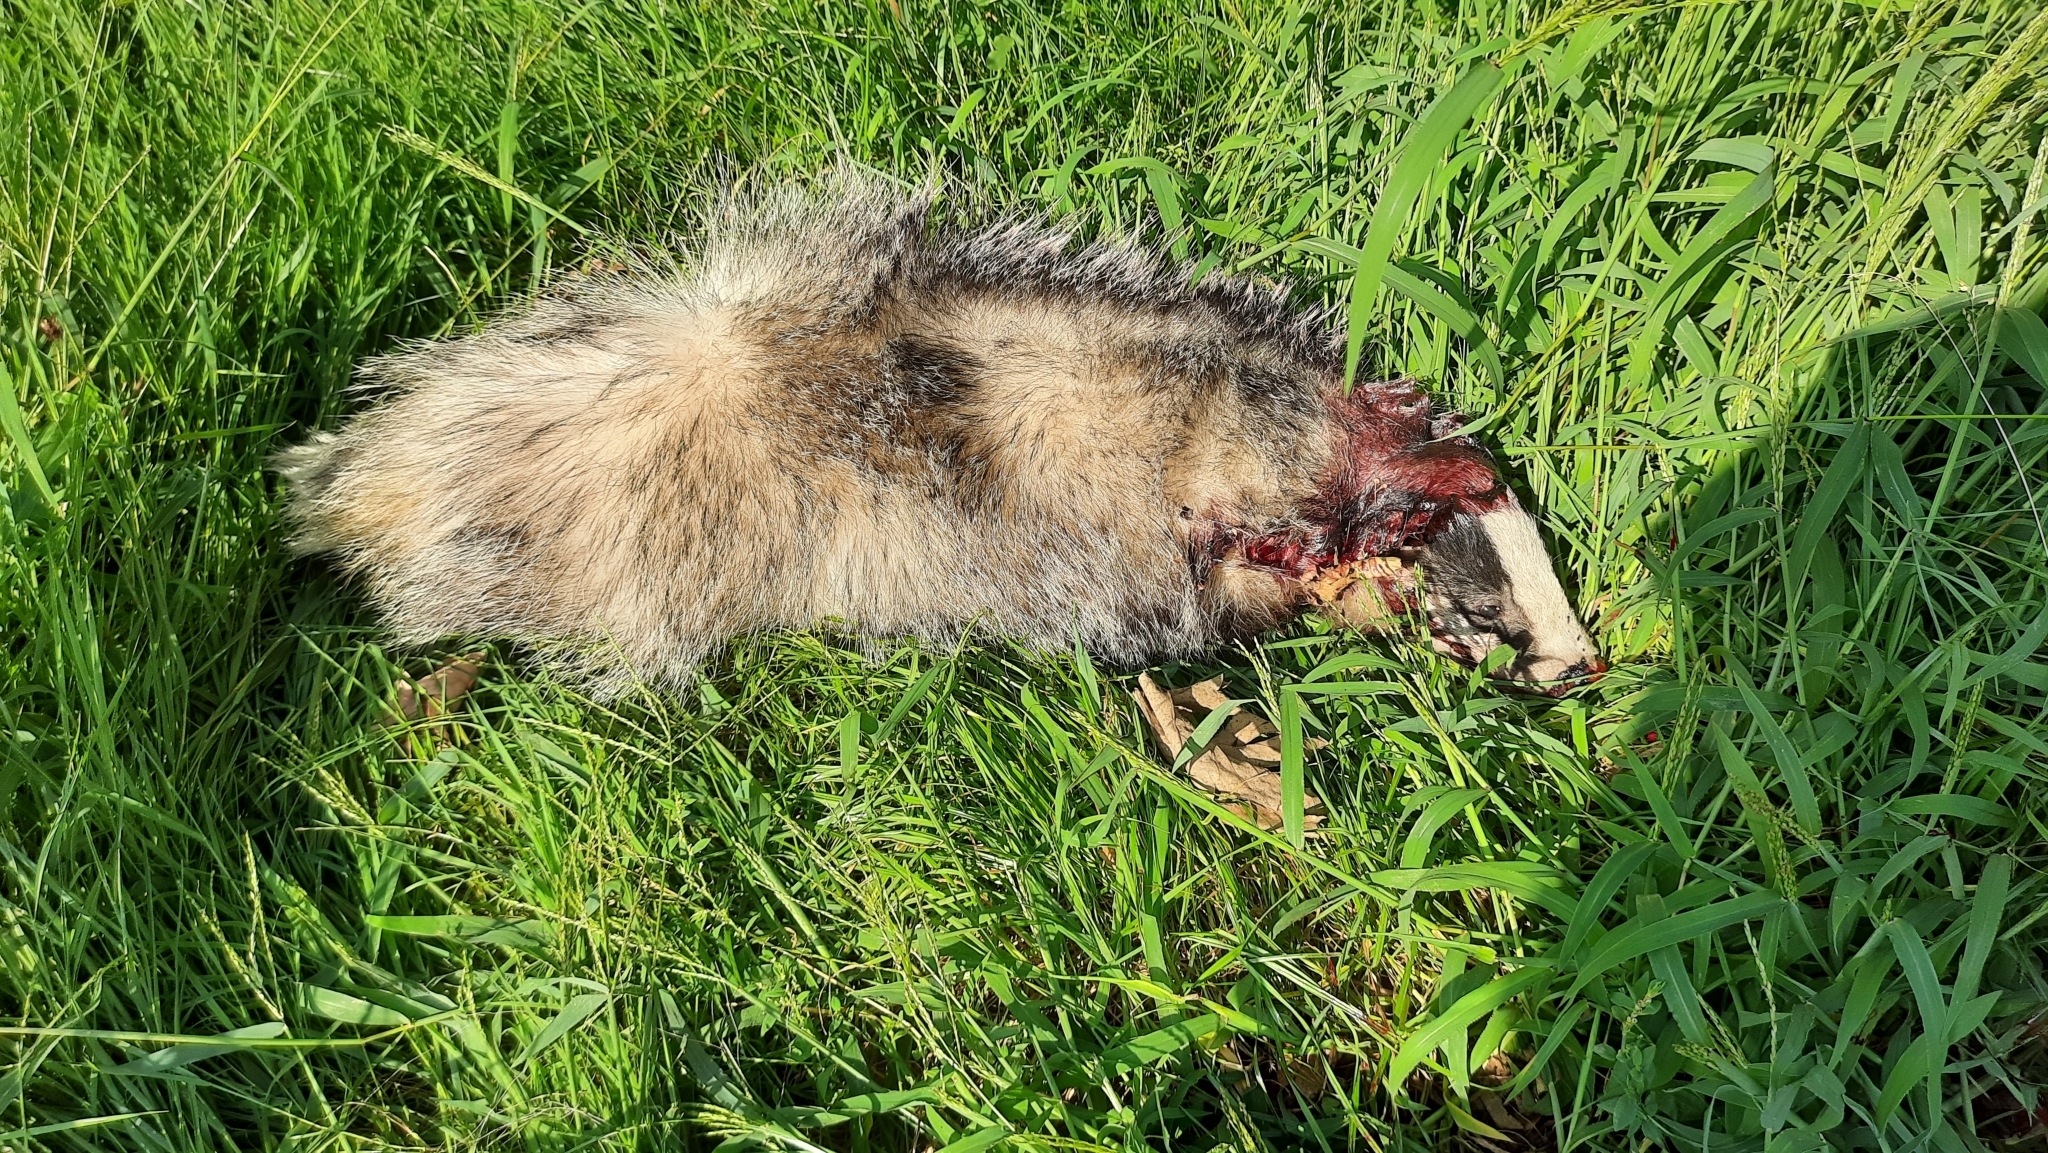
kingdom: Animalia
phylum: Chordata
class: Mammalia
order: Carnivora
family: Mustelidae
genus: Meles
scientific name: Meles meles
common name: Eurasian badger
